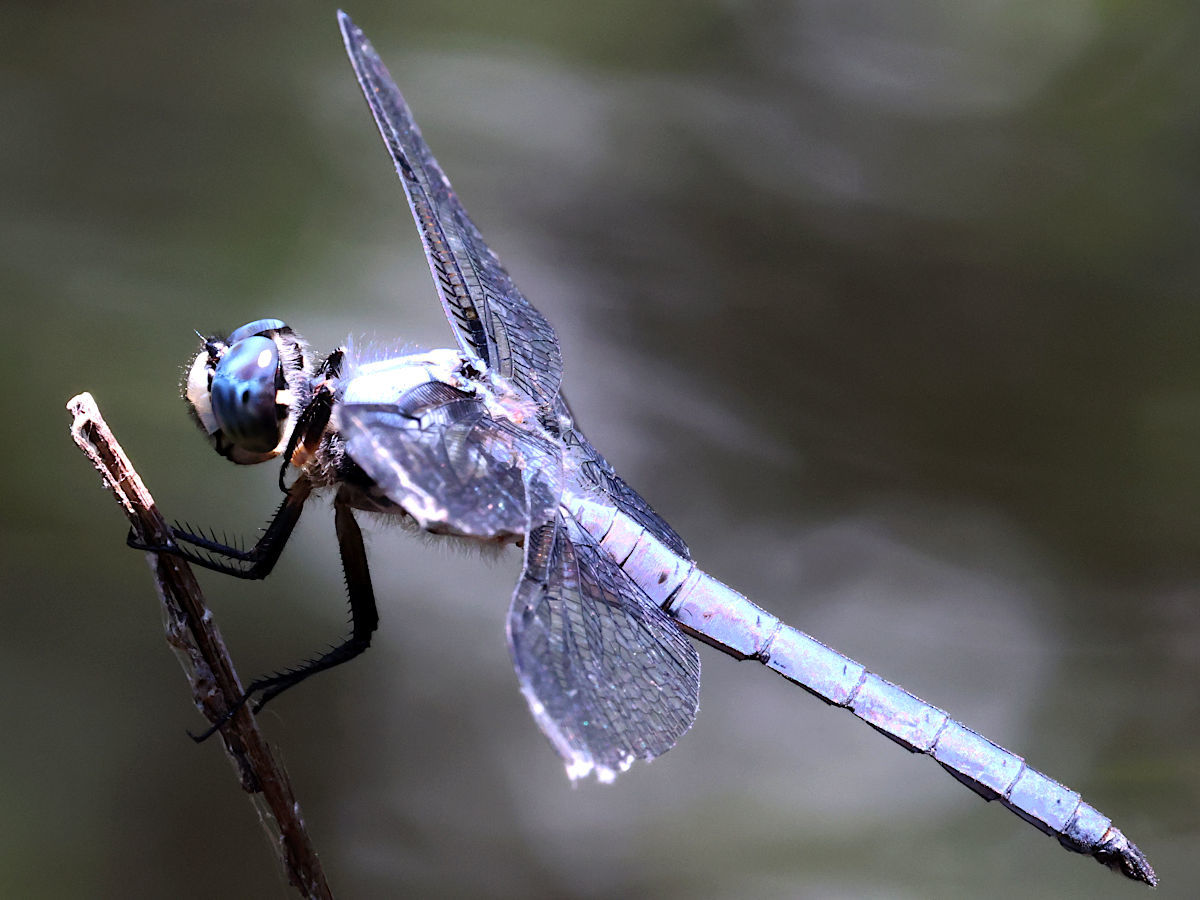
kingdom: Animalia
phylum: Arthropoda
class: Insecta
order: Odonata
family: Libellulidae
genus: Libellula
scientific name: Libellula vibrans
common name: Great blue skimmer
